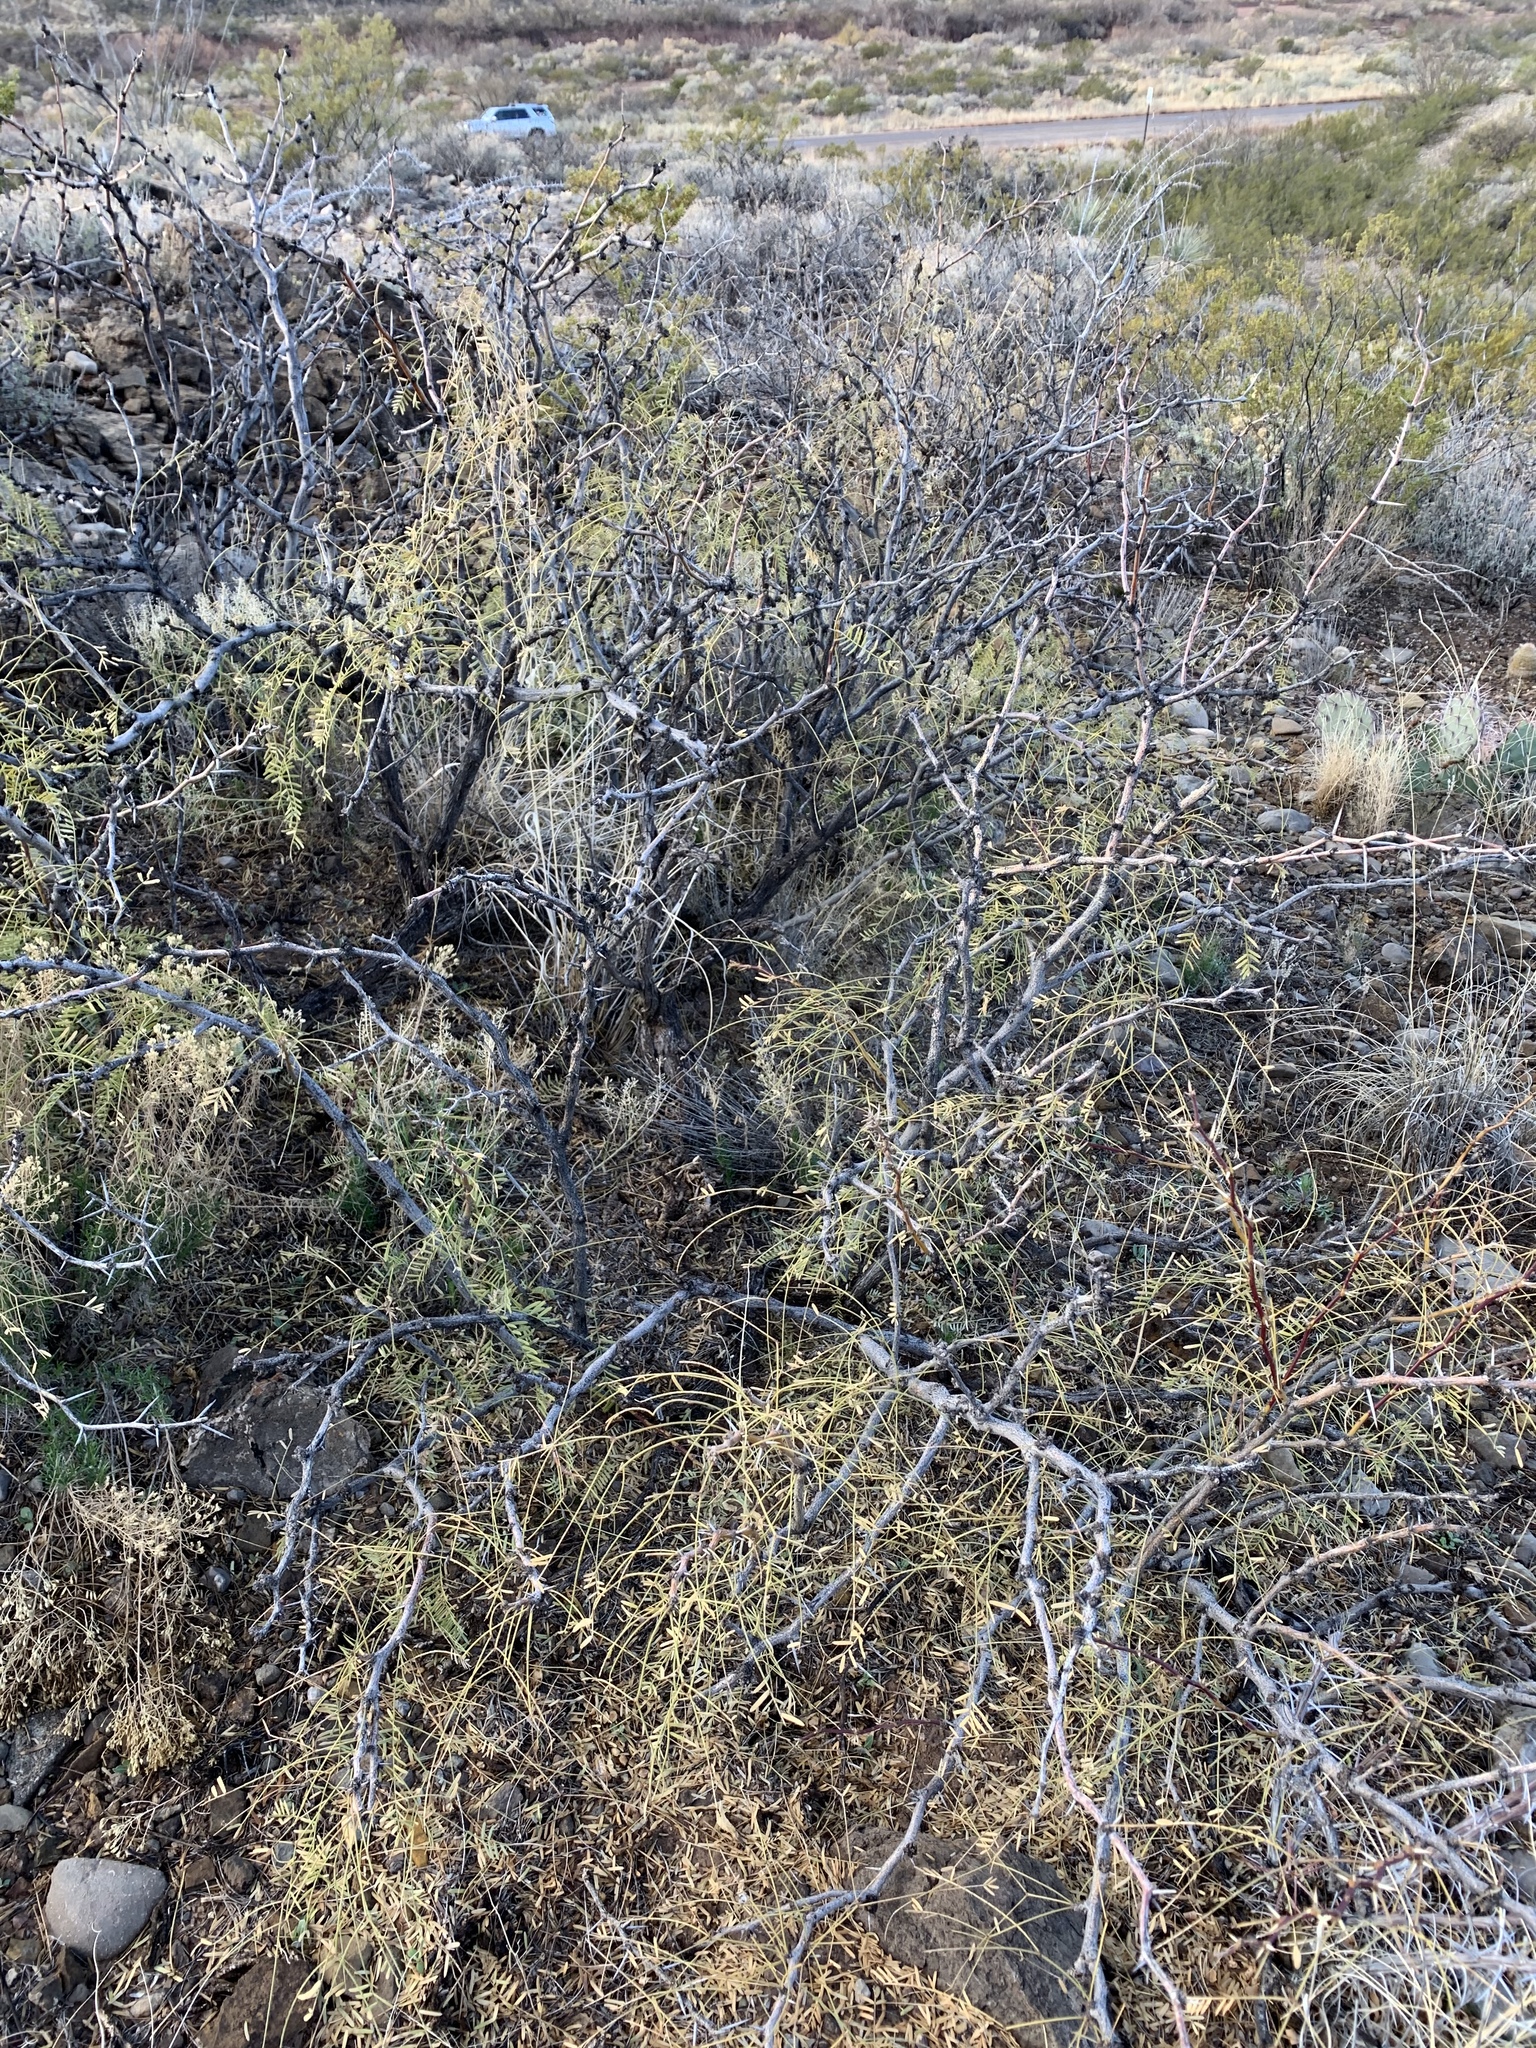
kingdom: Plantae
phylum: Tracheophyta
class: Magnoliopsida
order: Fabales
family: Fabaceae
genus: Prosopis
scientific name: Prosopis glandulosa
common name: Honey mesquite
